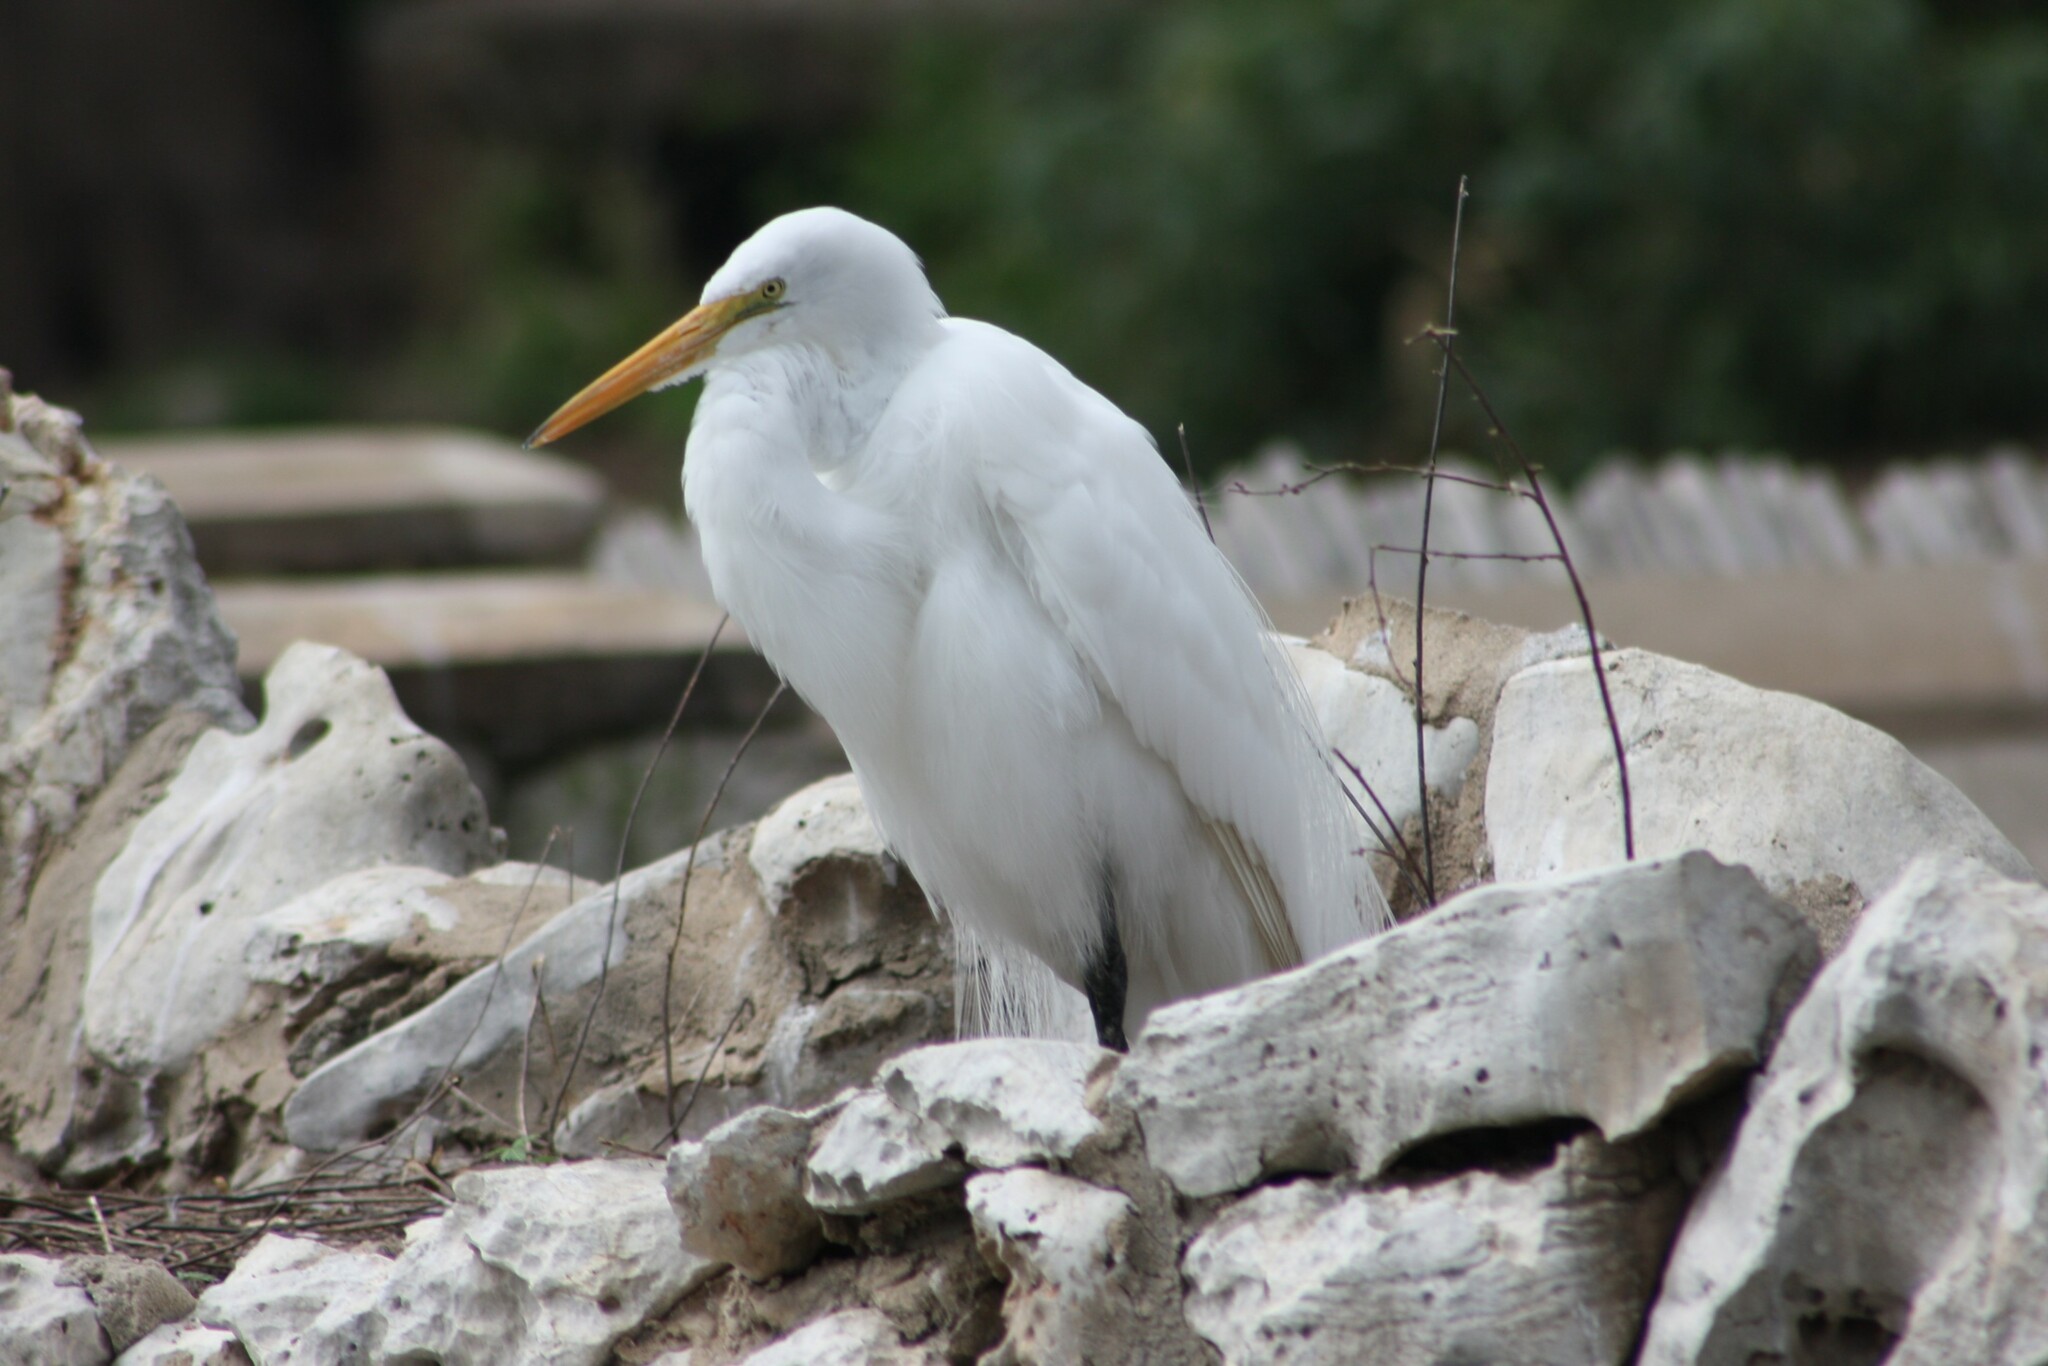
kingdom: Animalia
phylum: Chordata
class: Aves
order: Pelecaniformes
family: Ardeidae
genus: Ardea
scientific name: Ardea alba
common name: Great egret
